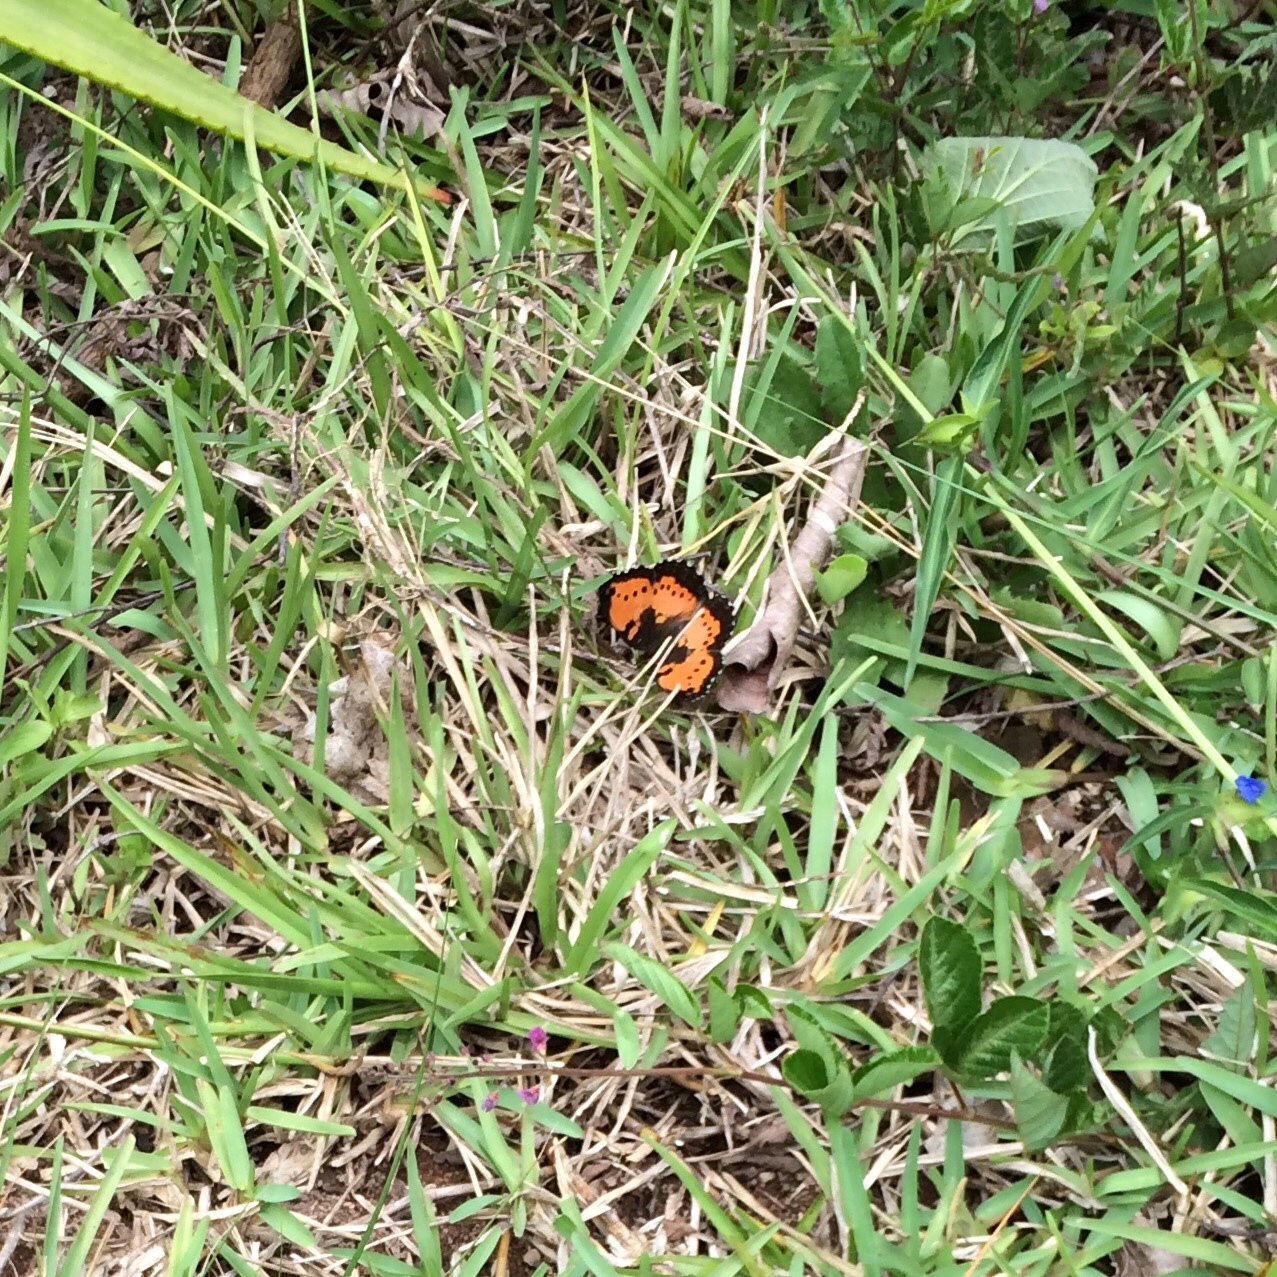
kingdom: Animalia
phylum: Arthropoda
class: Insecta
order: Lepidoptera
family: Nymphalidae
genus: Precis
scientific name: Precis octavia
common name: Gaudy commodore
